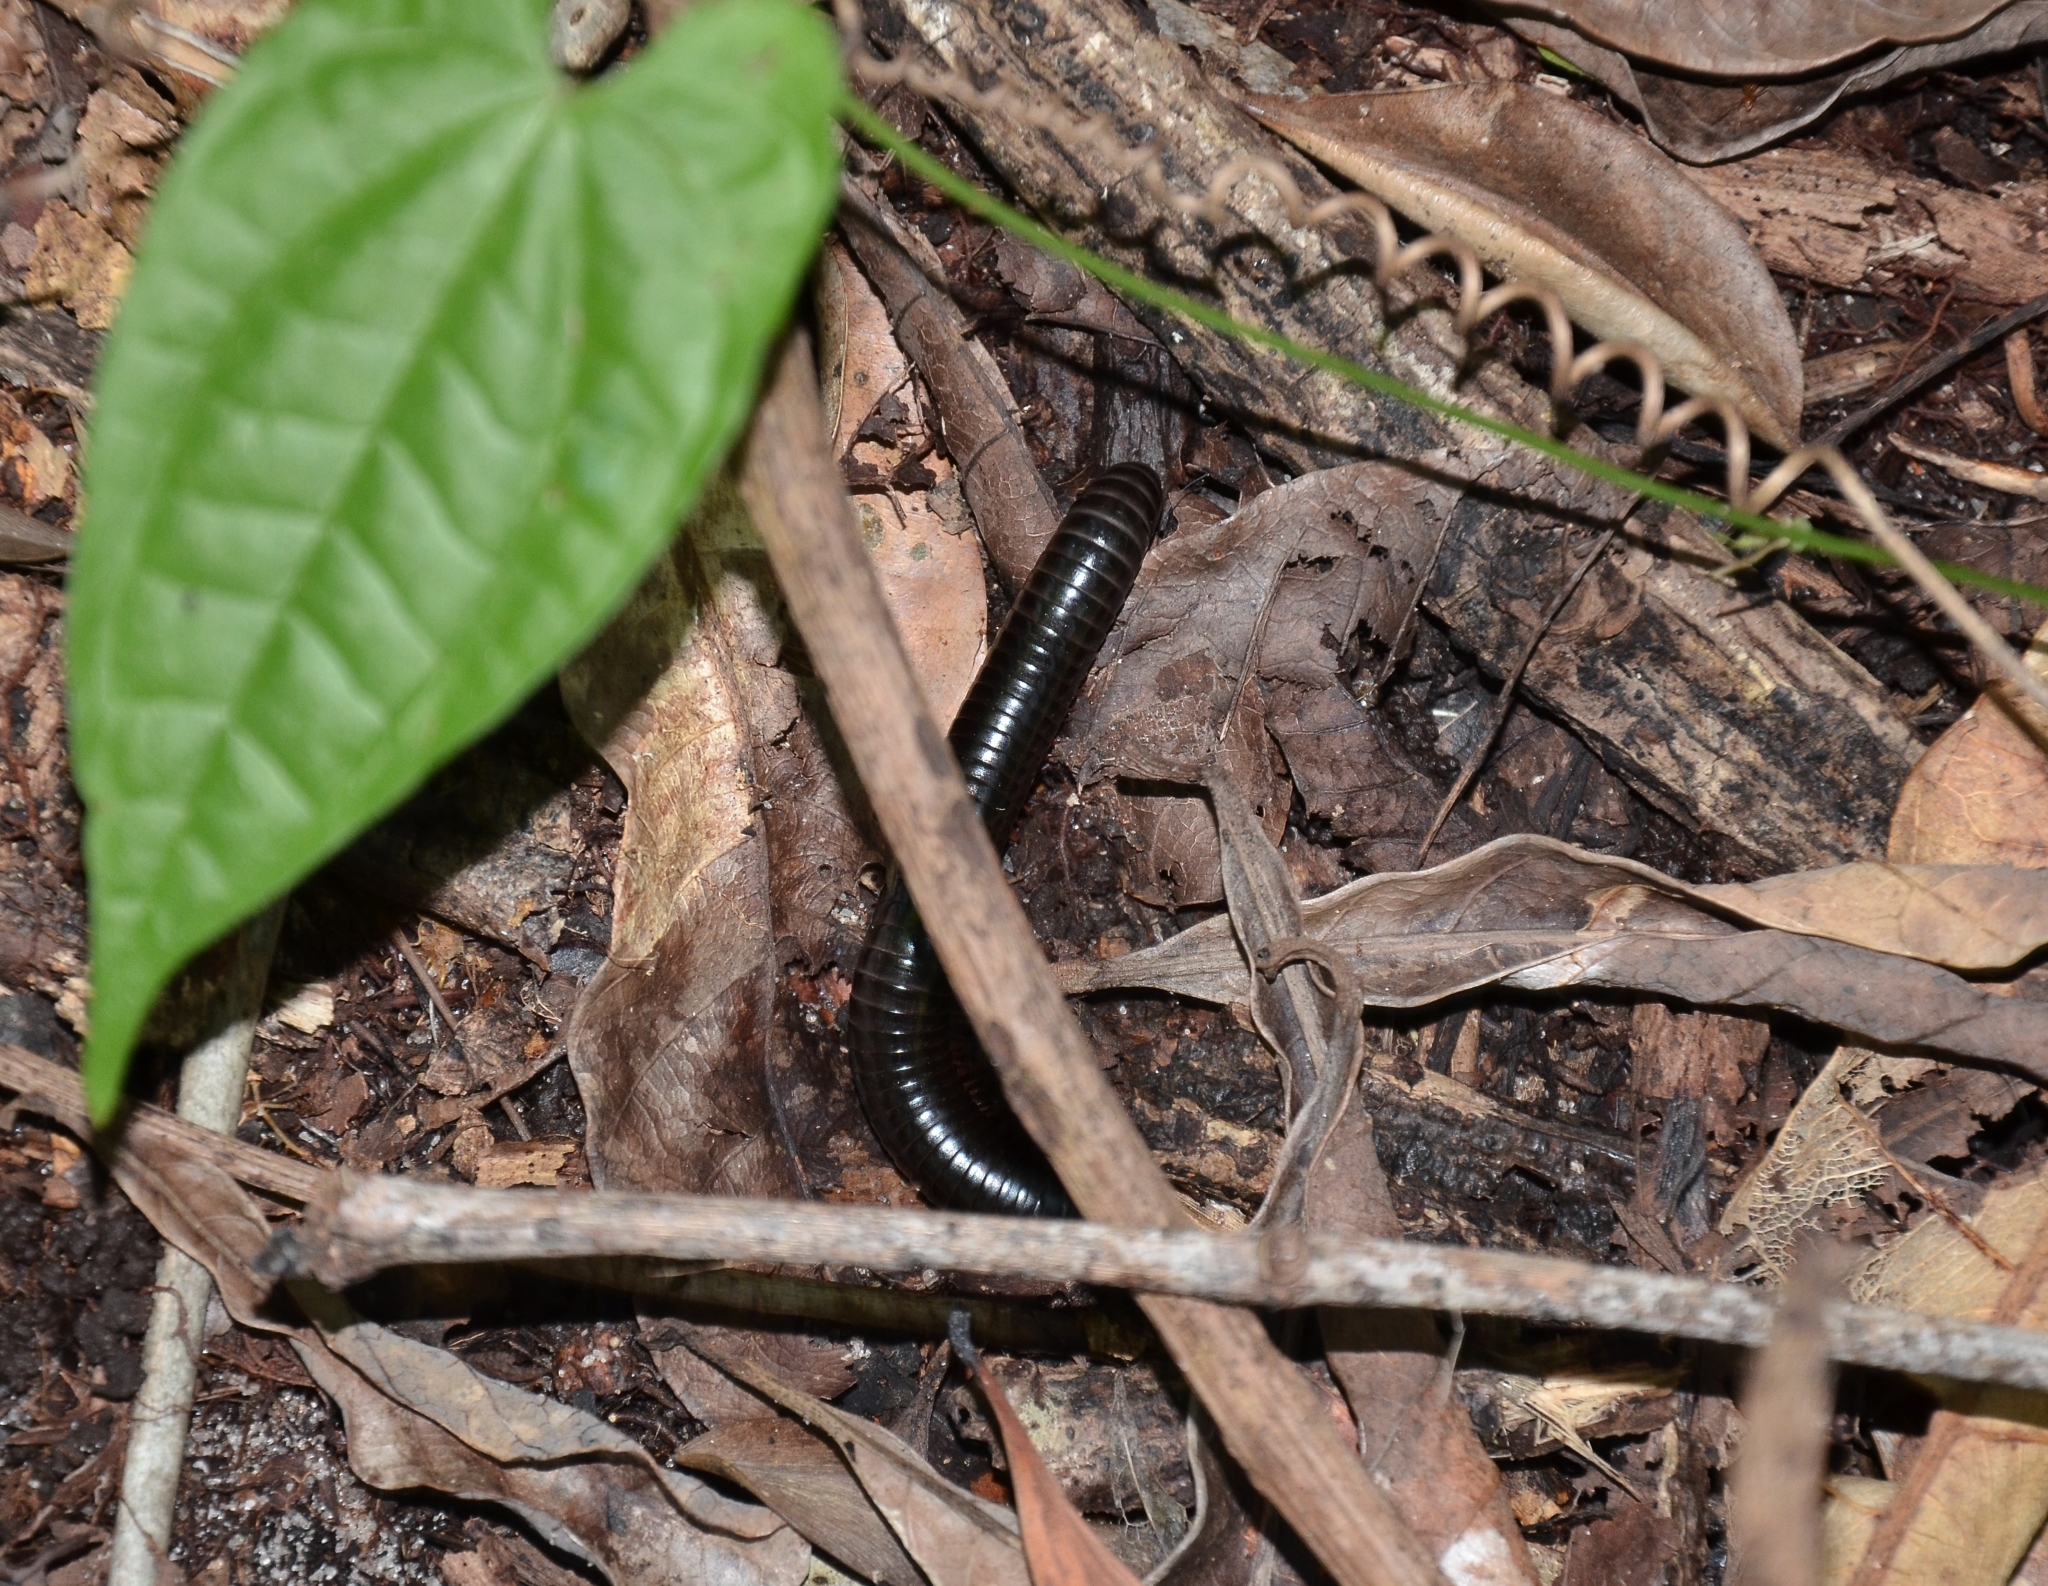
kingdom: Animalia
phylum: Arthropoda
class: Diplopoda
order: Spirostreptida
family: Harpagophoridae
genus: Phyllogonostreptus
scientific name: Phyllogonostreptus nigrolabiatus
